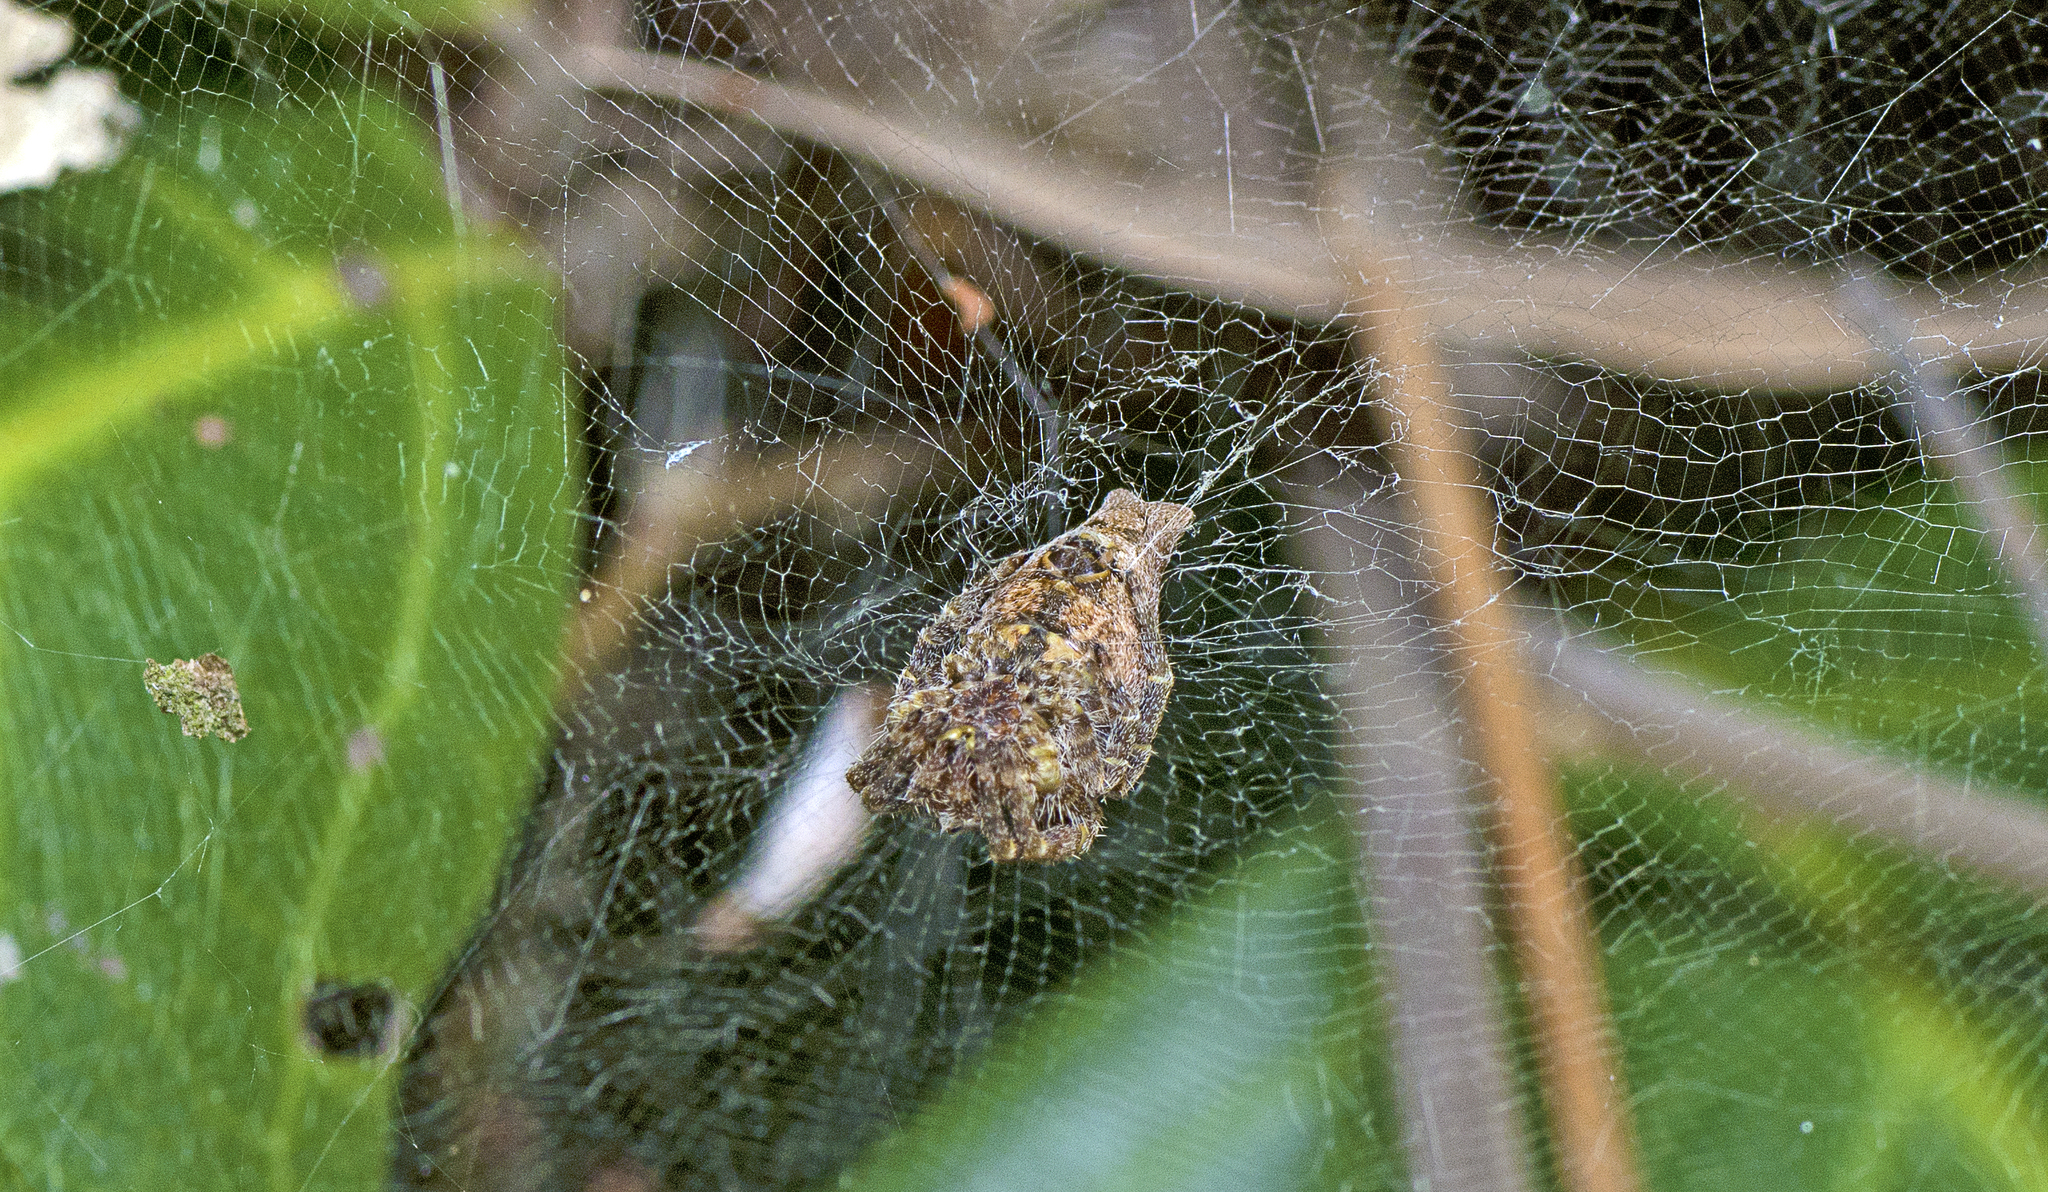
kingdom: Animalia
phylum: Arthropoda
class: Arachnida
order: Araneae
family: Araneidae
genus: Cyrtophora
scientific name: Cyrtophora exanthematica
